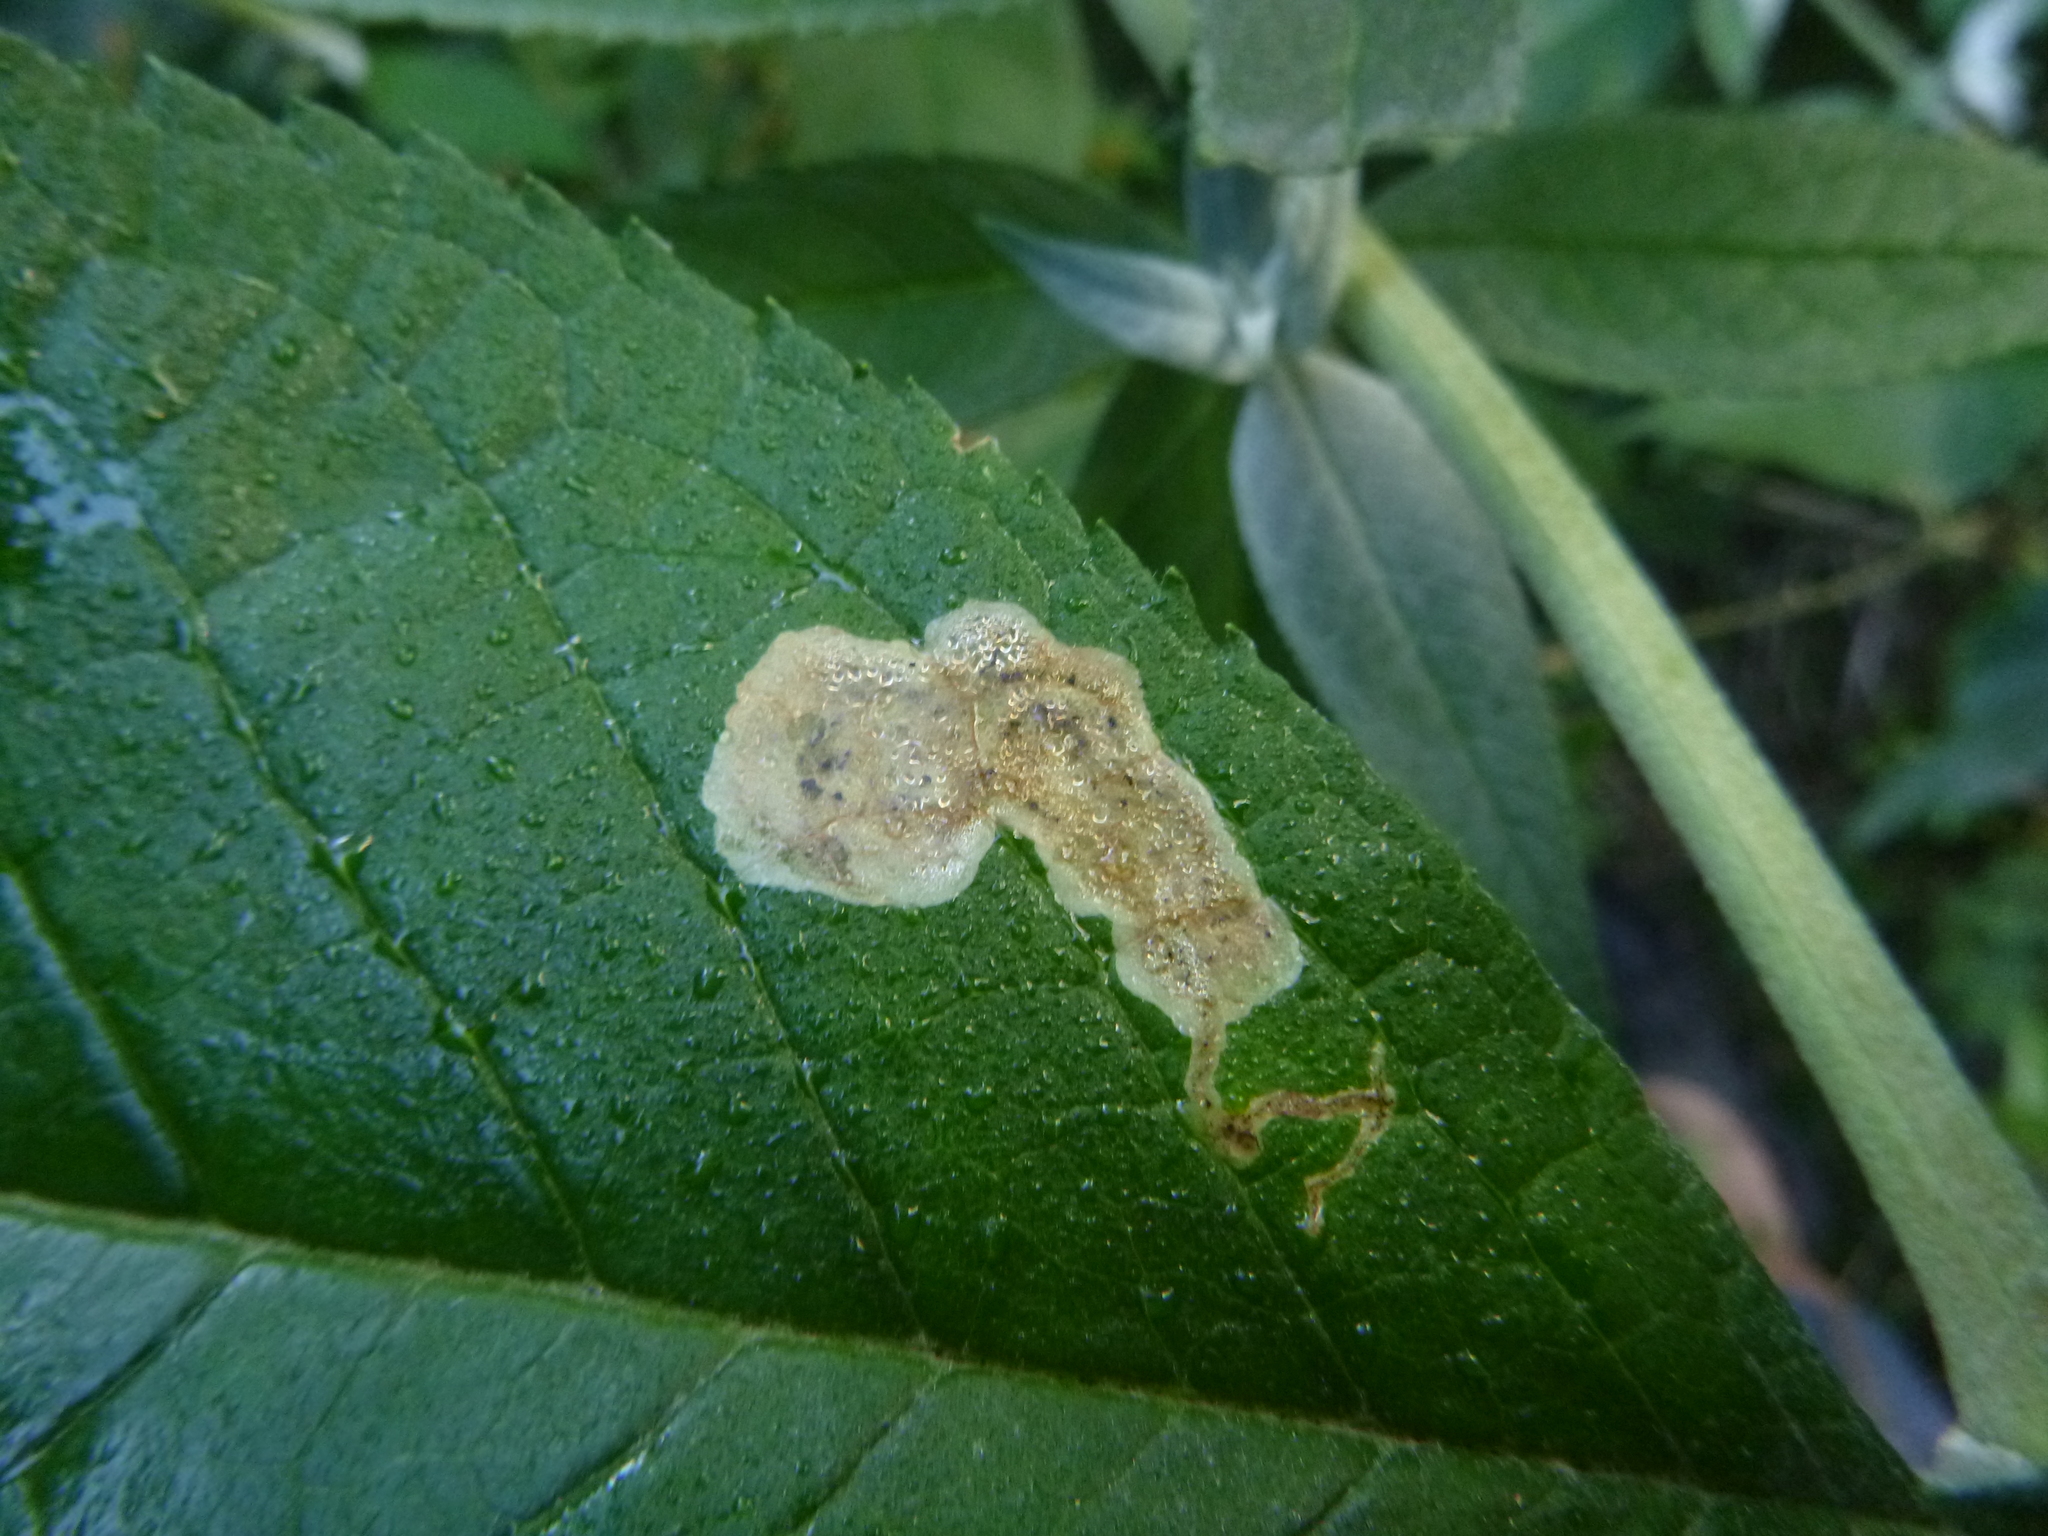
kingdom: Animalia
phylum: Arthropoda
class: Insecta
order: Diptera
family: Agromyzidae
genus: Amauromyza
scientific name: Amauromyza verbasci
